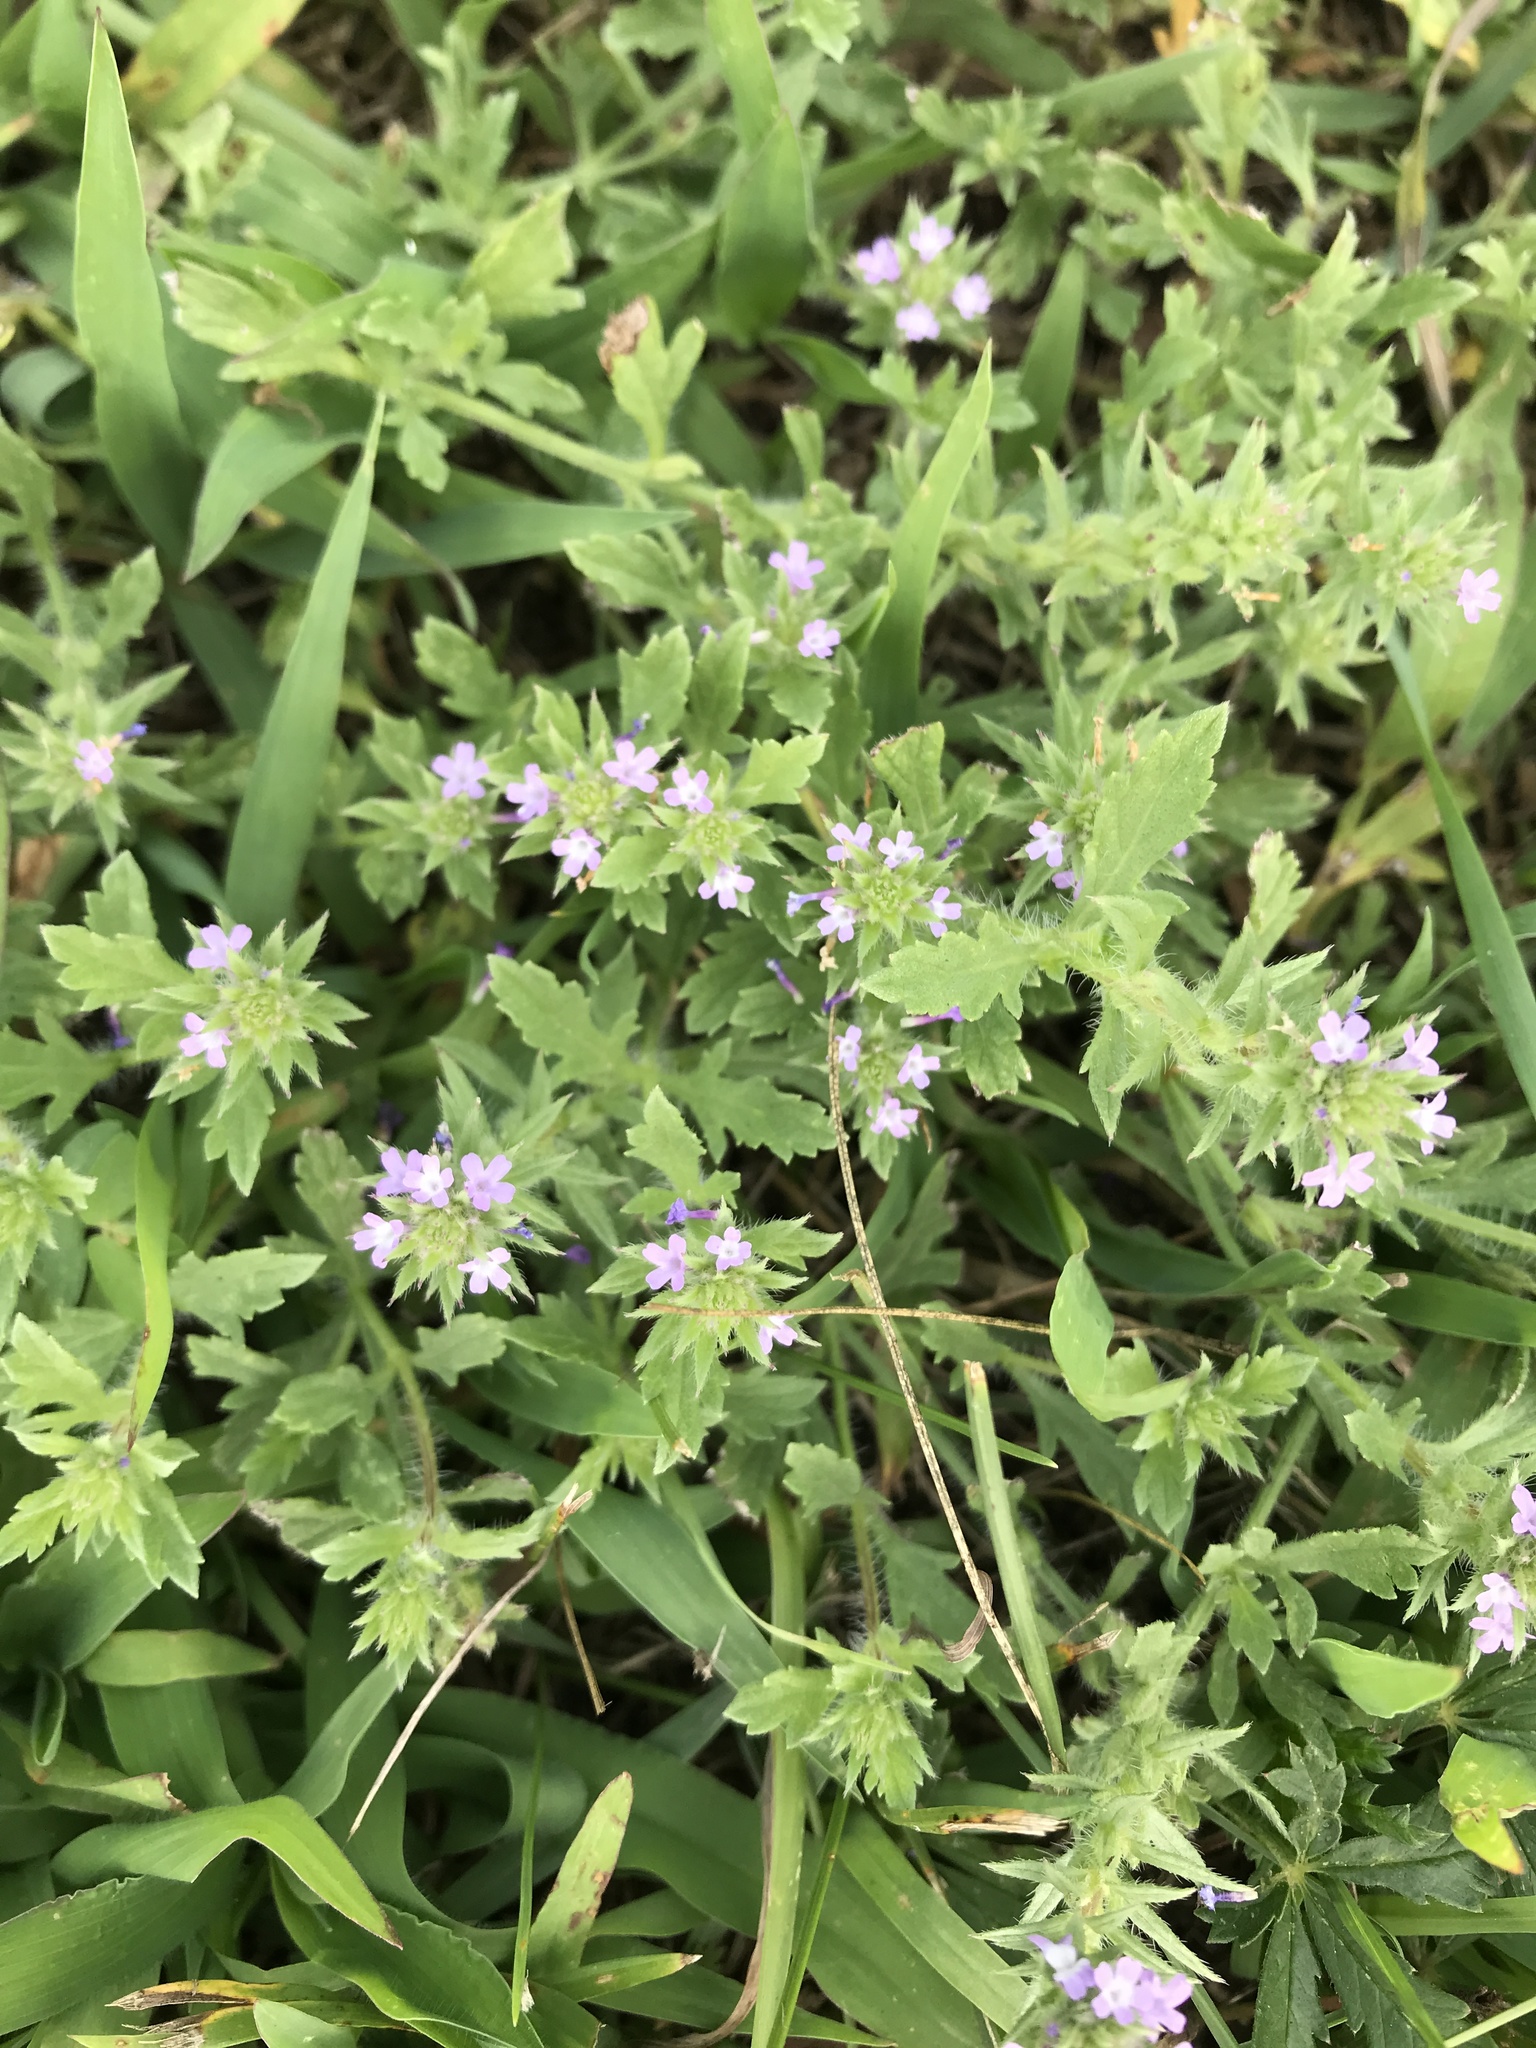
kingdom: Plantae
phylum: Tracheophyta
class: Magnoliopsida
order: Lamiales
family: Verbenaceae
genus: Verbena
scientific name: Verbena bracteata
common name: Bracted vervain
